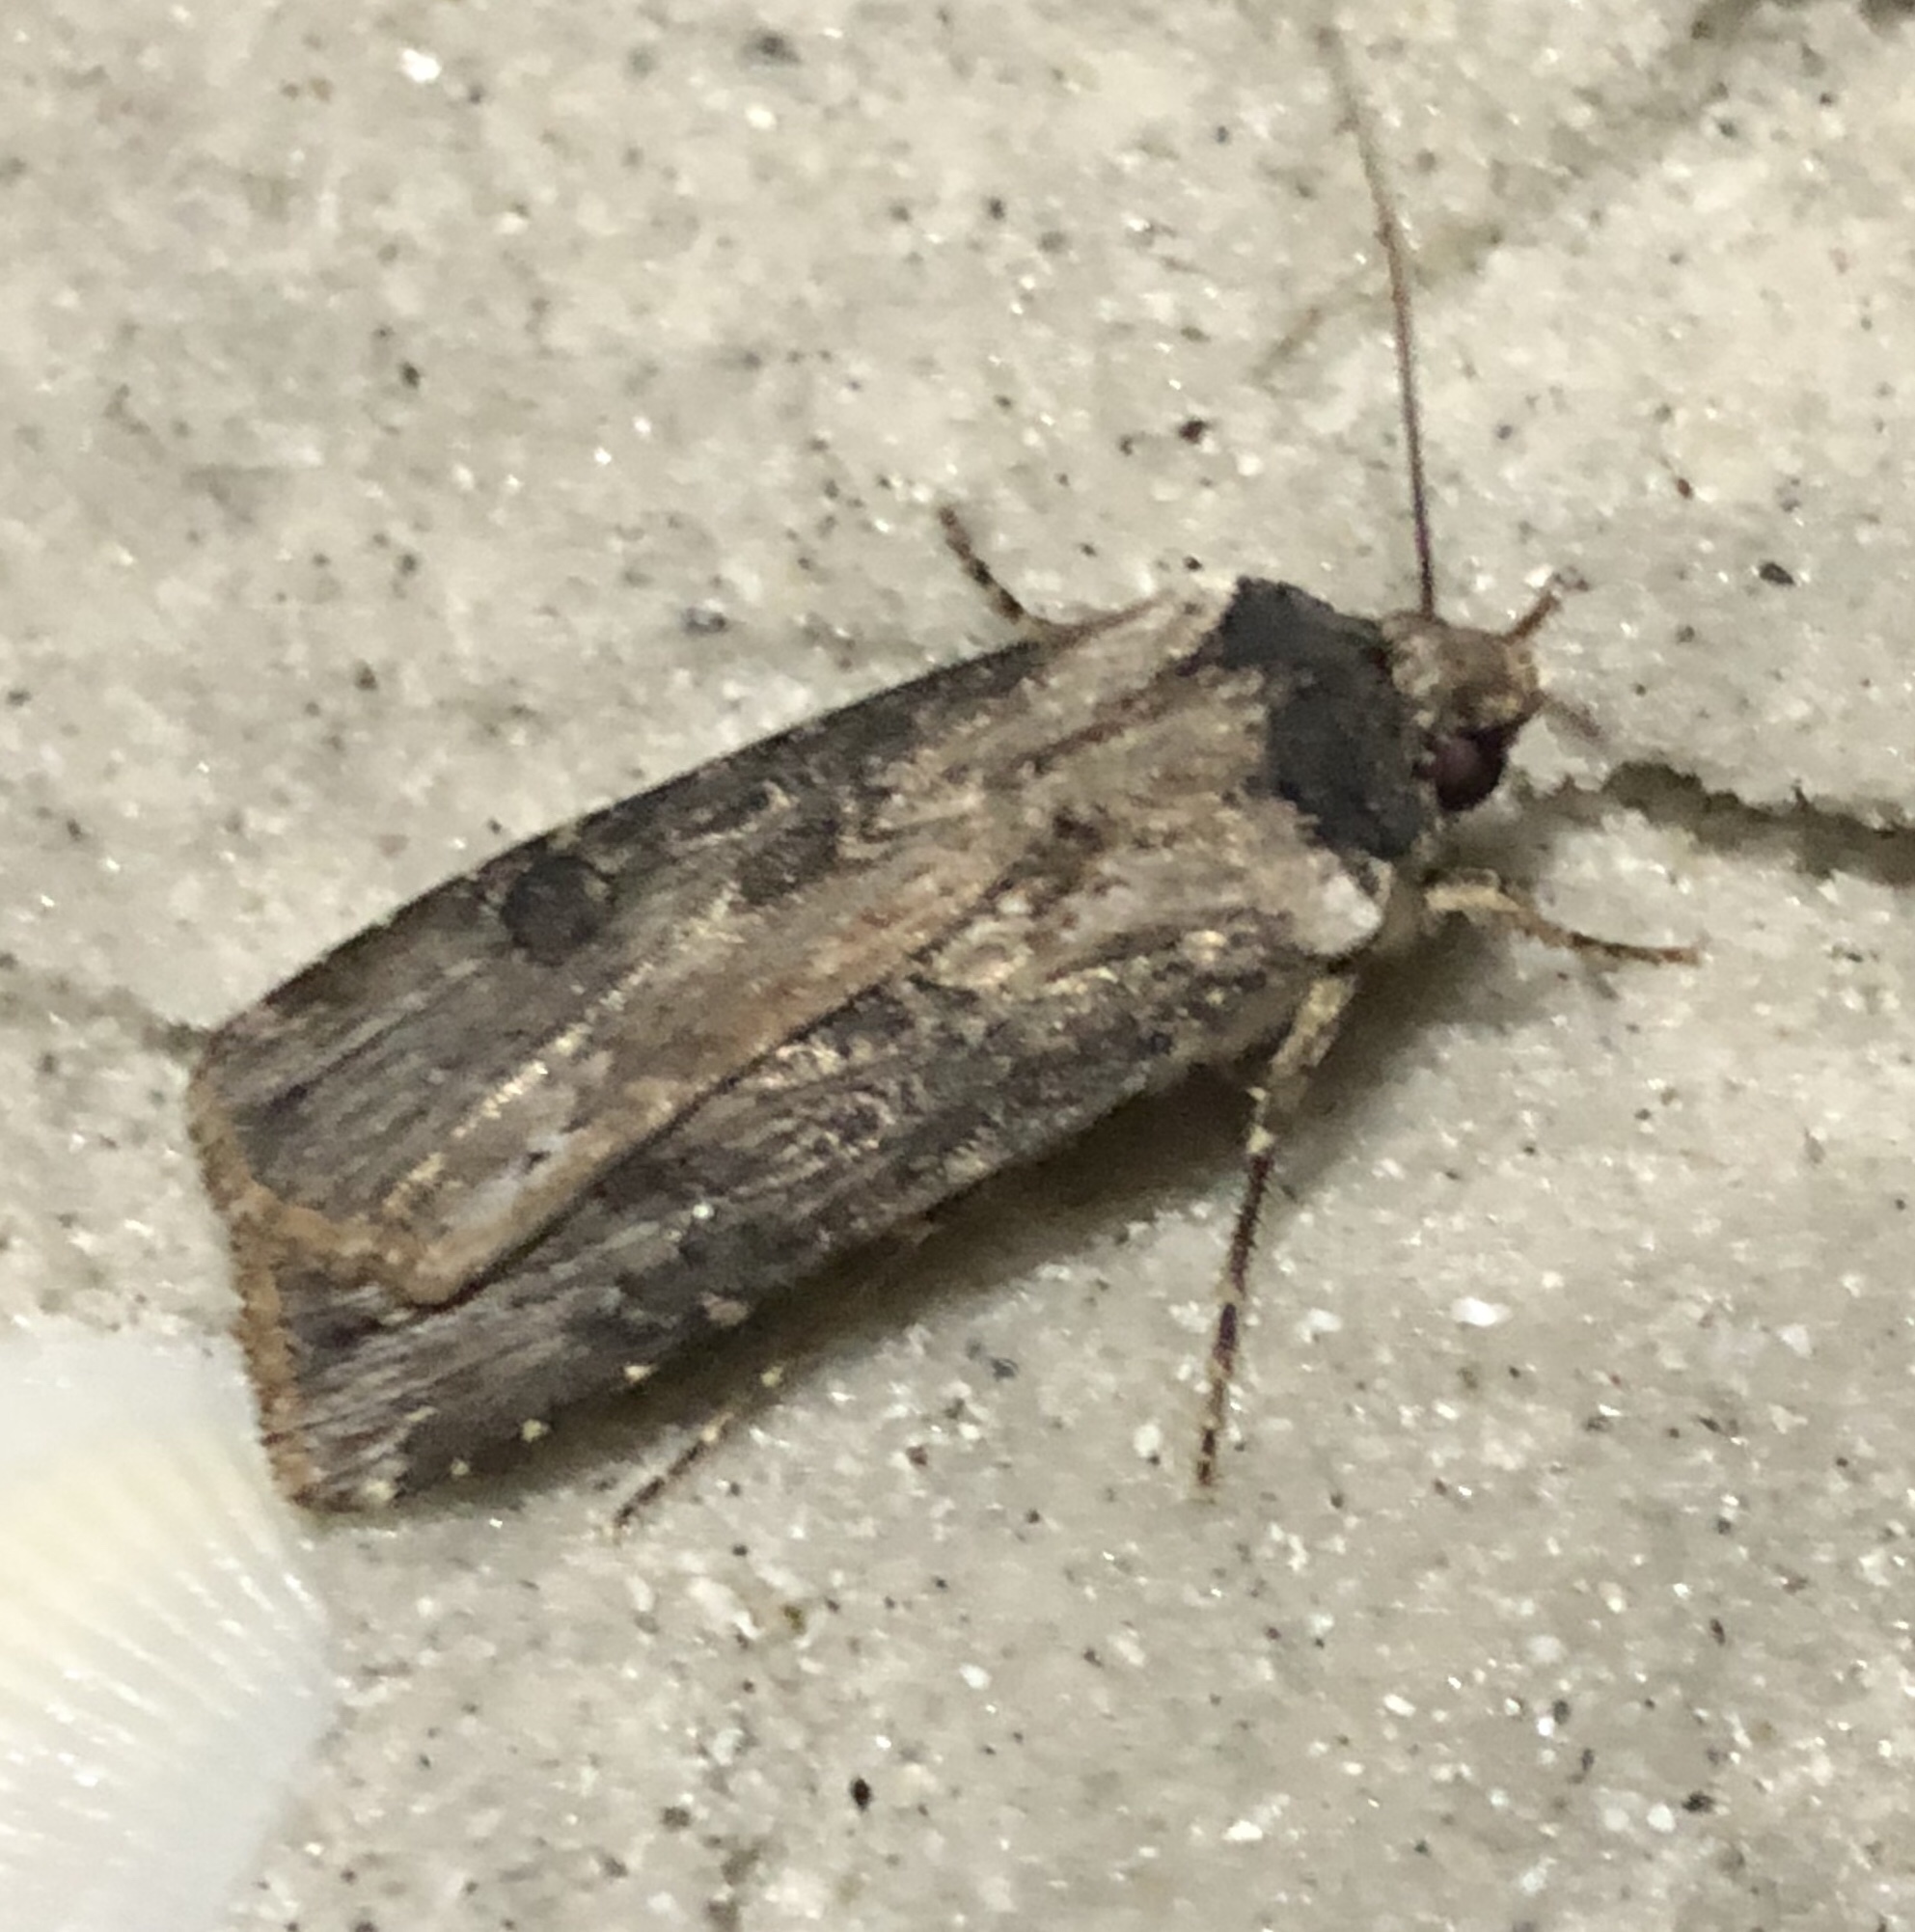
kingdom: Animalia
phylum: Arthropoda
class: Insecta
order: Lepidoptera
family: Noctuidae
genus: Agrotis
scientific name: Agrotis malefida
